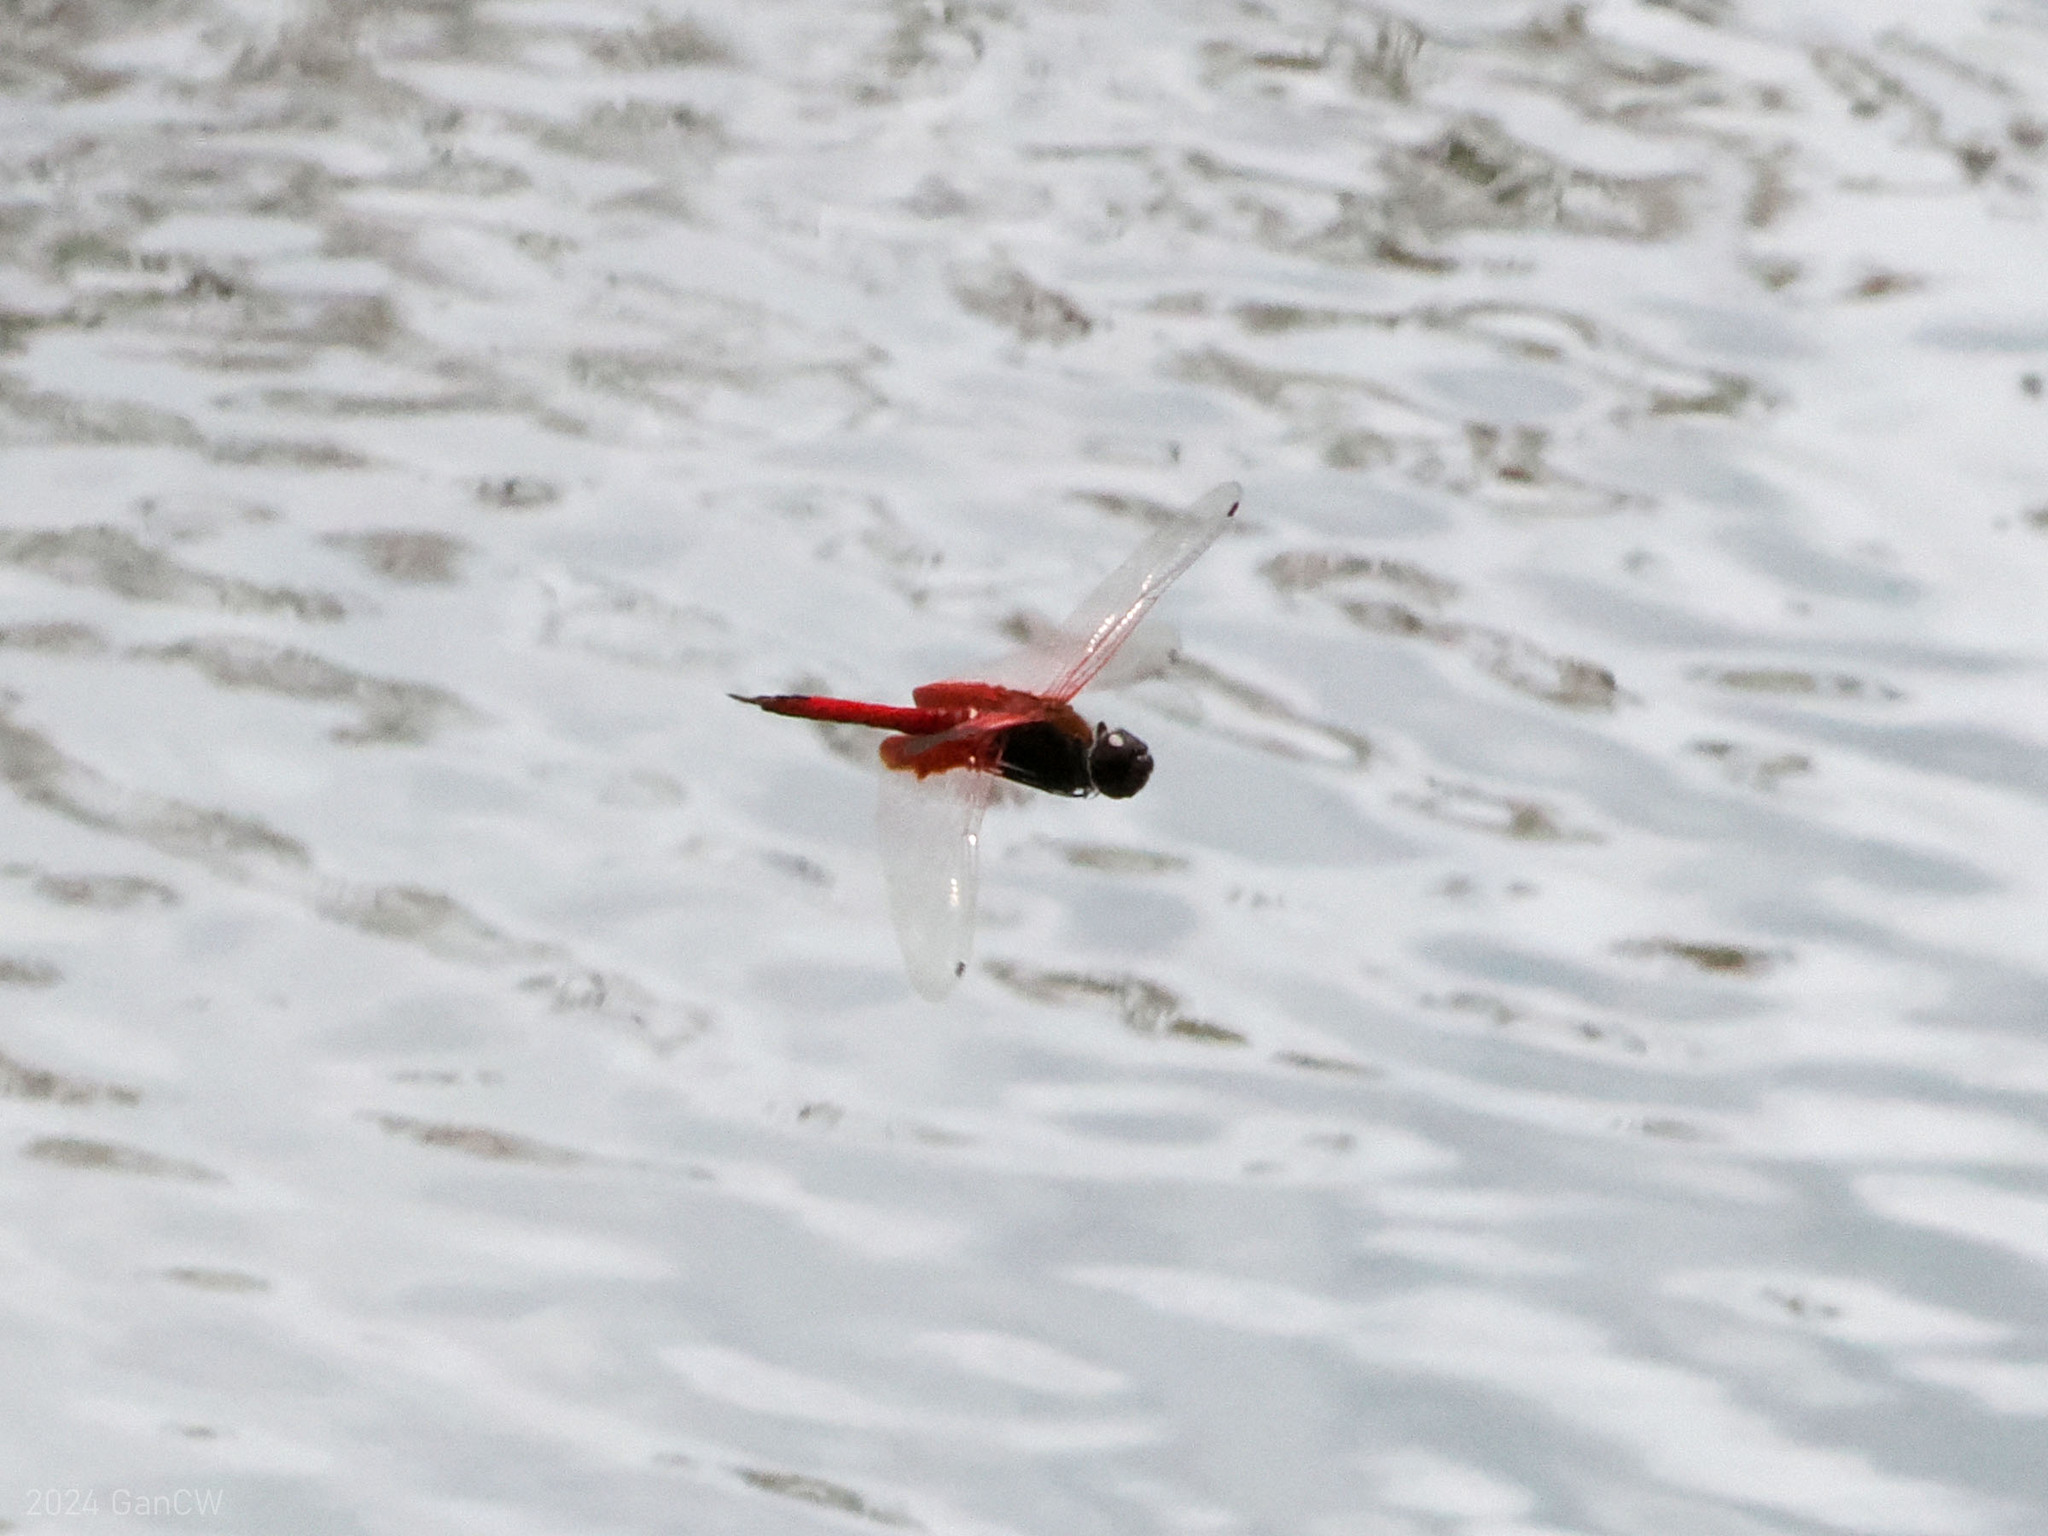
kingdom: Animalia
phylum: Arthropoda
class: Insecta
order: Odonata
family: Libellulidae
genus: Tramea
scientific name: Tramea rosenbergi
